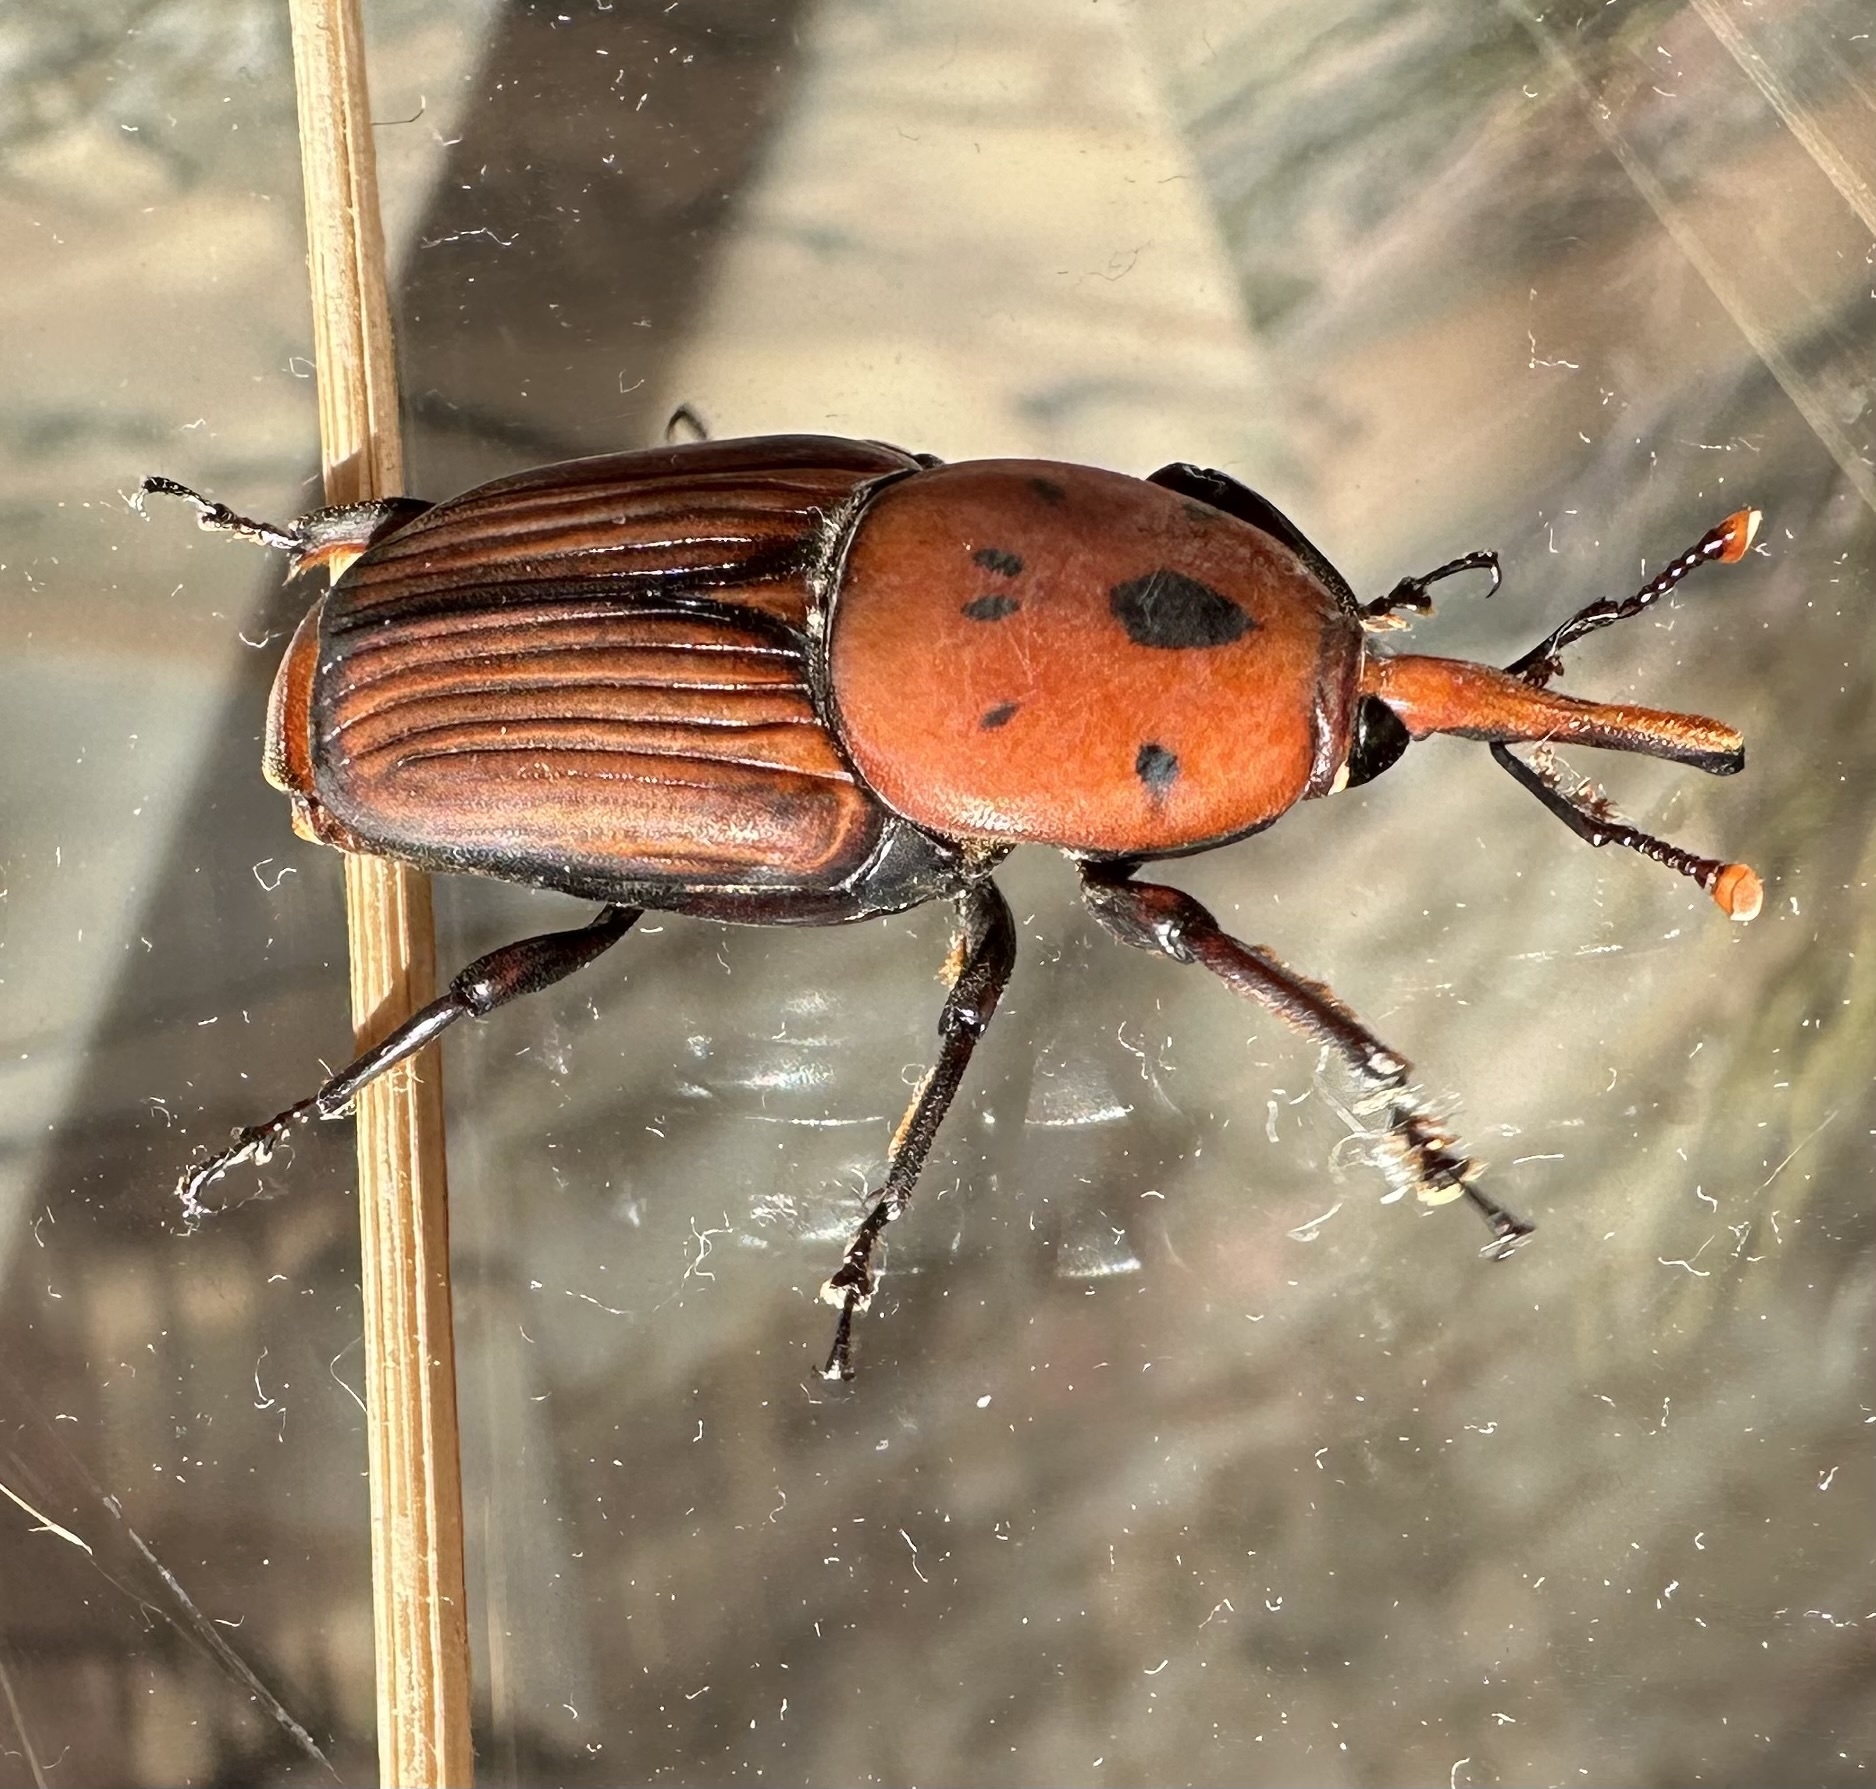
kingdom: Animalia
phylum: Arthropoda
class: Insecta
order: Coleoptera
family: Dryophthoridae
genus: Rhynchophorus
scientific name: Rhynchophorus ferrugineus
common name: Red palm weevil
